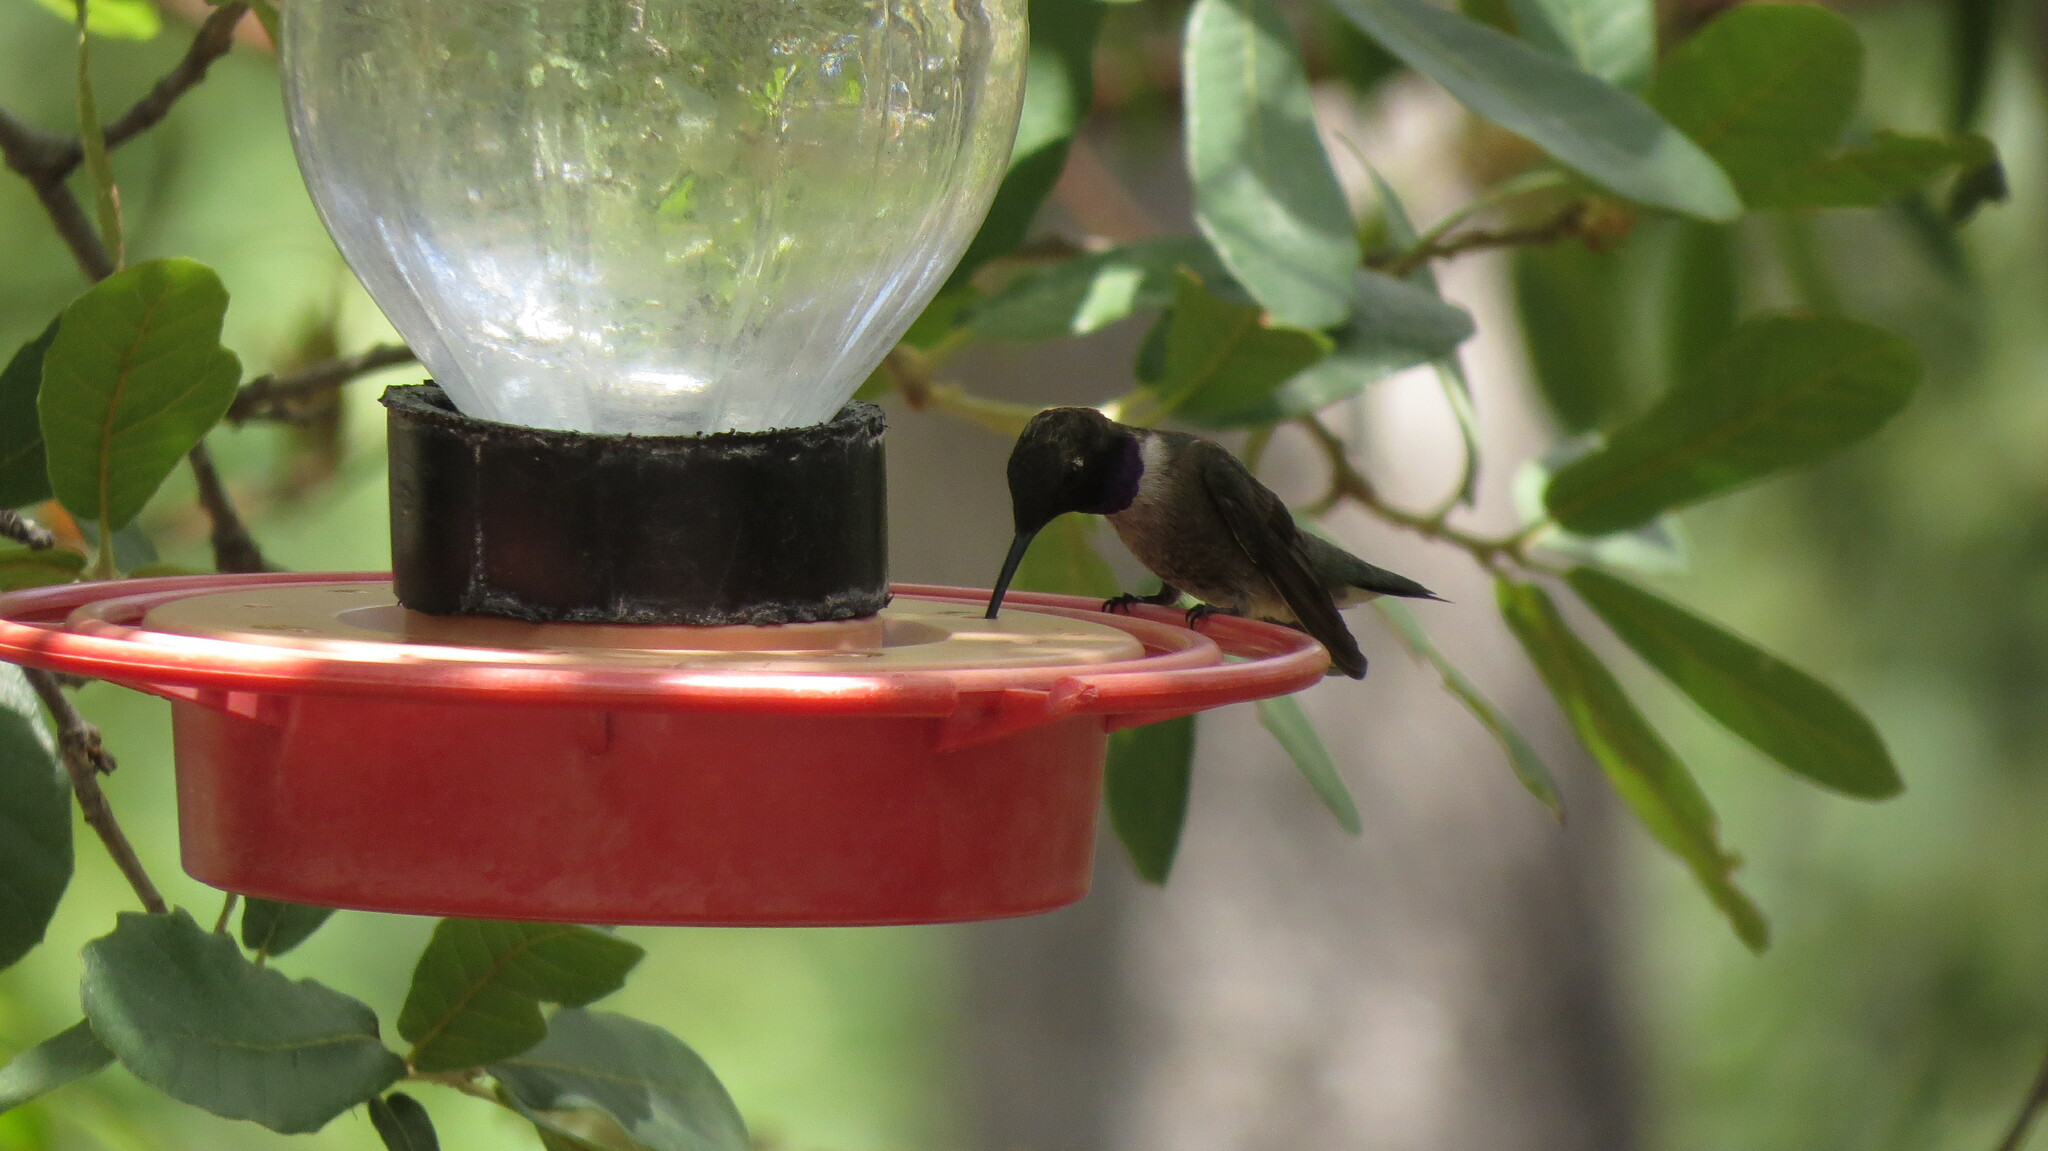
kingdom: Animalia
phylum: Chordata
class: Aves
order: Apodiformes
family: Trochilidae
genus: Archilochus
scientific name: Archilochus alexandri
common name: Black-chinned hummingbird
